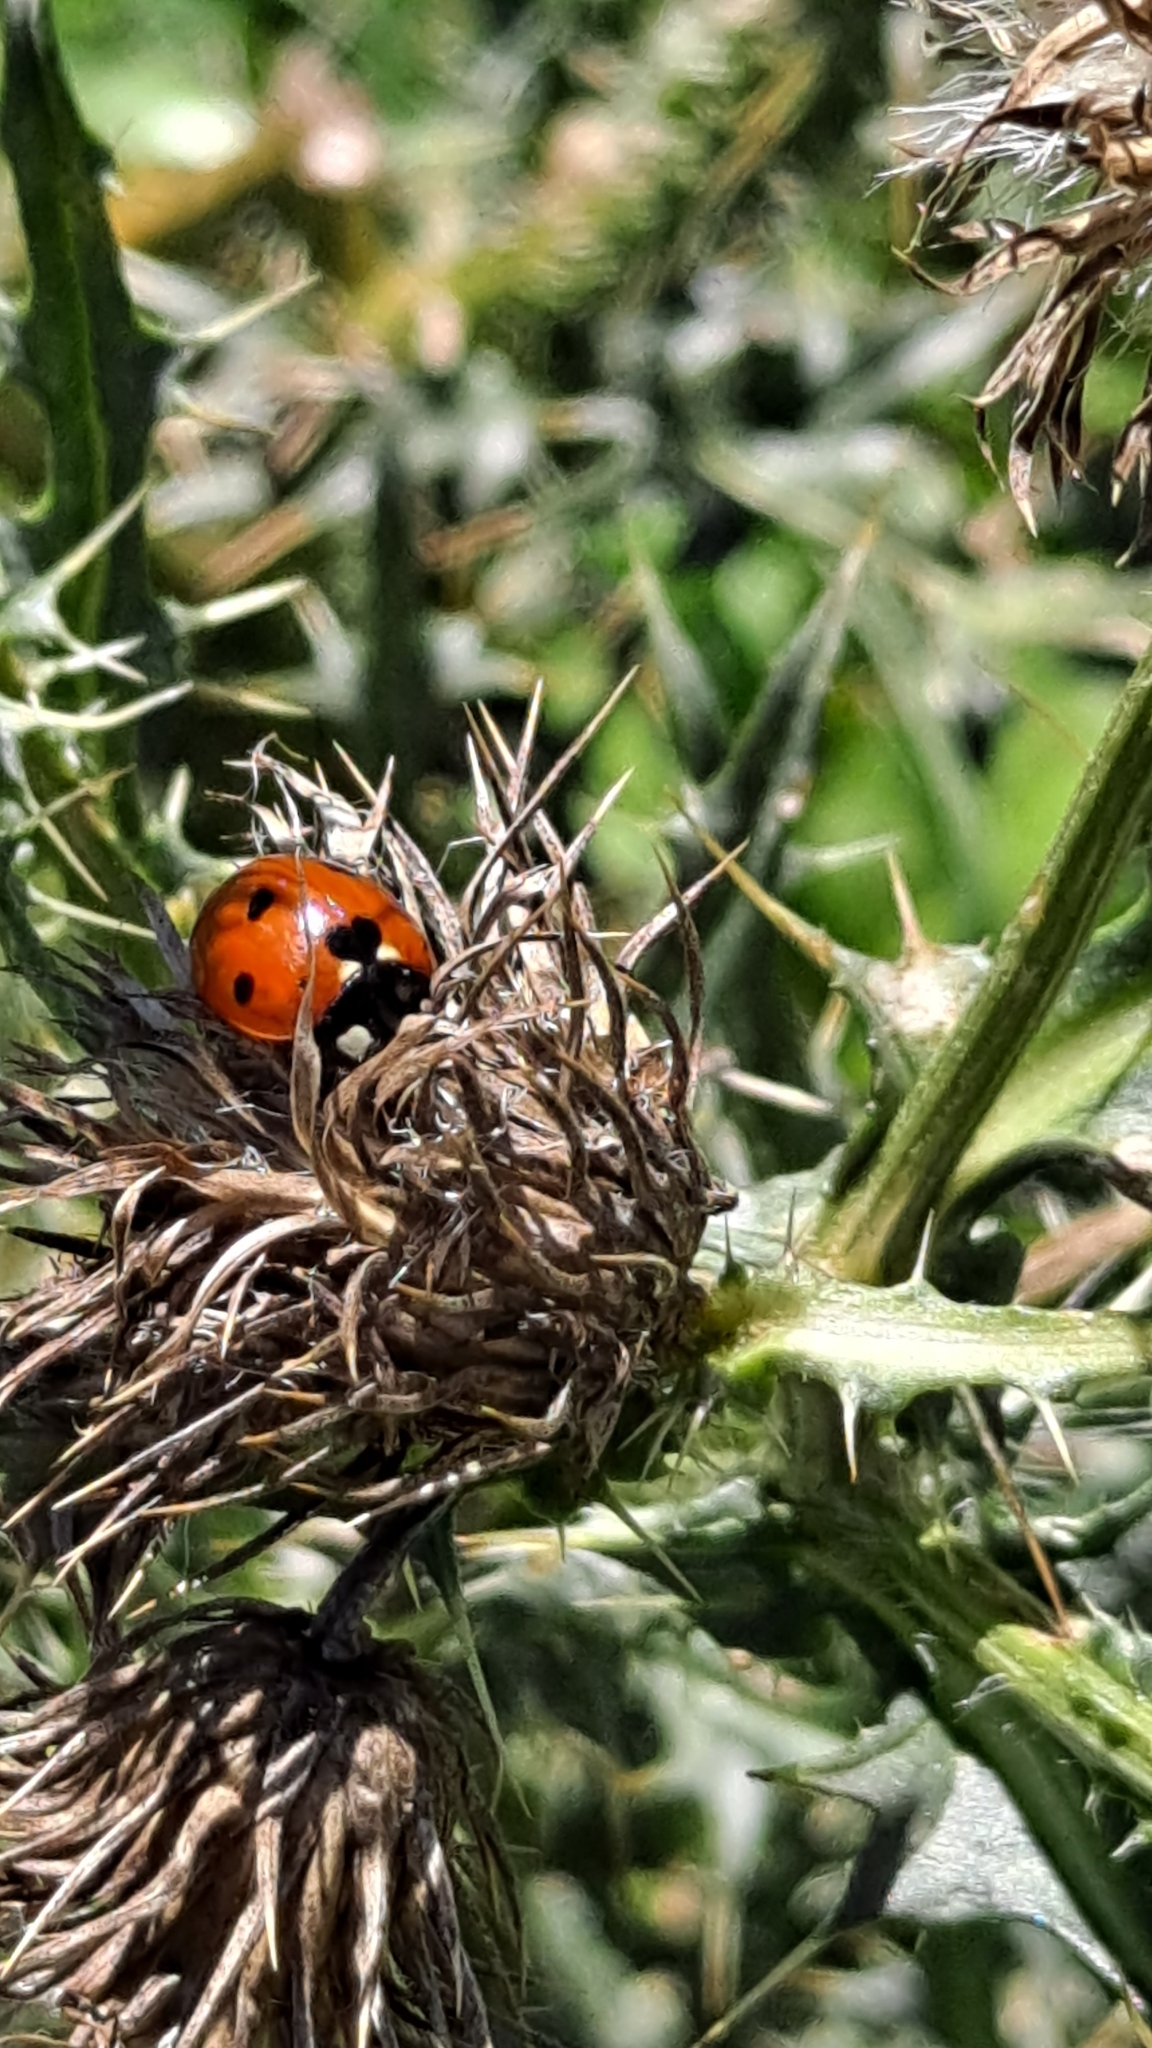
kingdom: Animalia
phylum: Arthropoda
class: Insecta
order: Coleoptera
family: Coccinellidae
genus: Coccinella
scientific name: Coccinella septempunctata
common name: Sevenspotted lady beetle
